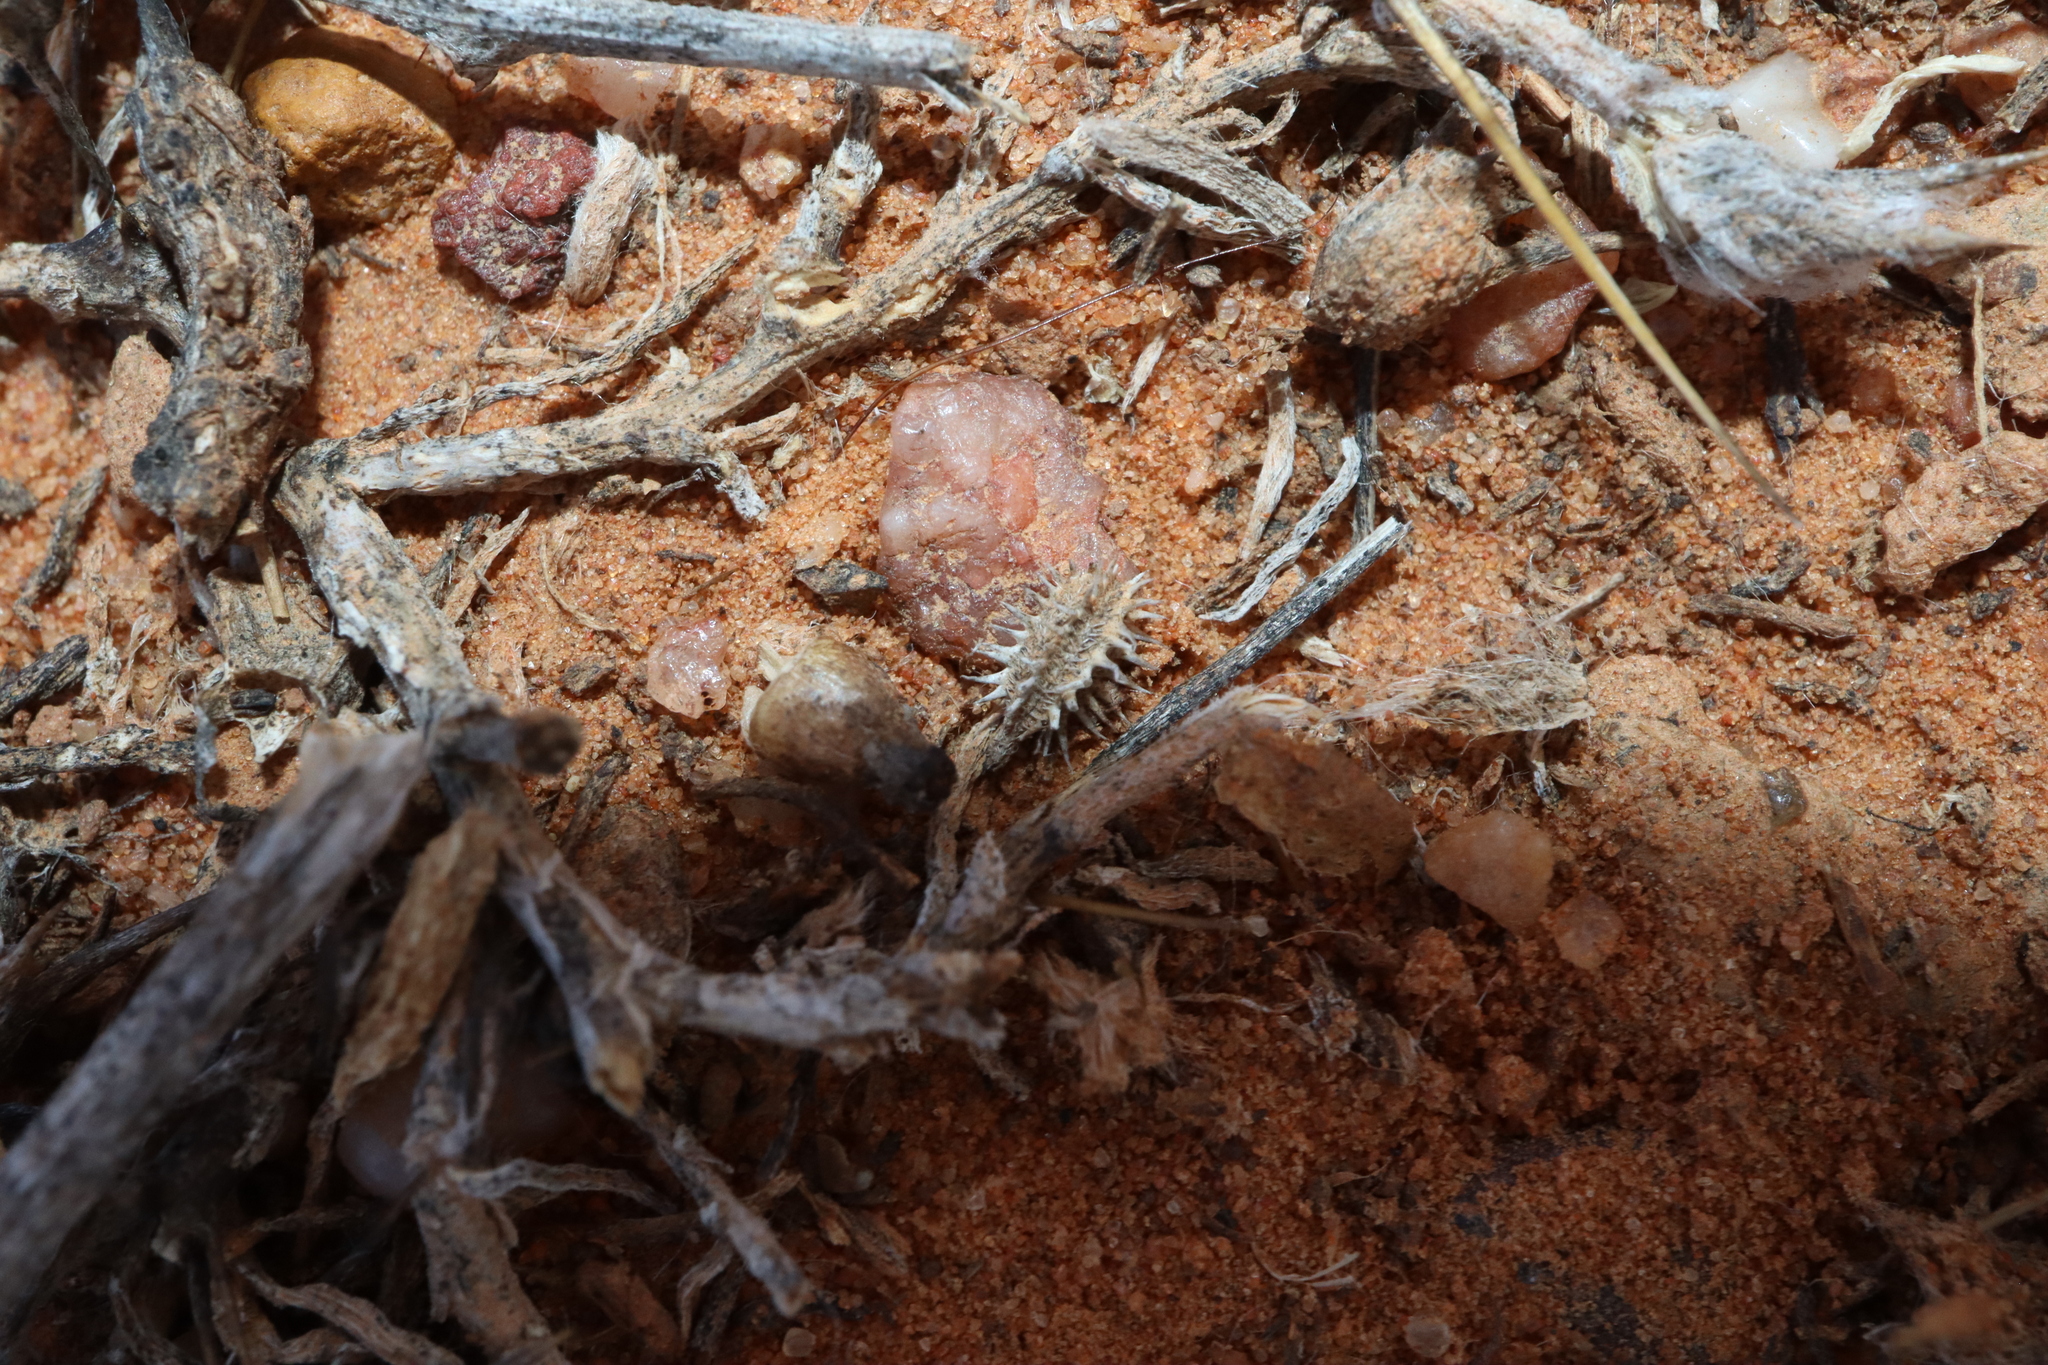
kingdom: Plantae
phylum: Tracheophyta
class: Magnoliopsida
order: Apiales
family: Apiaceae
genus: Daucus
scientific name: Daucus glochidiatus
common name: Australian carrot
